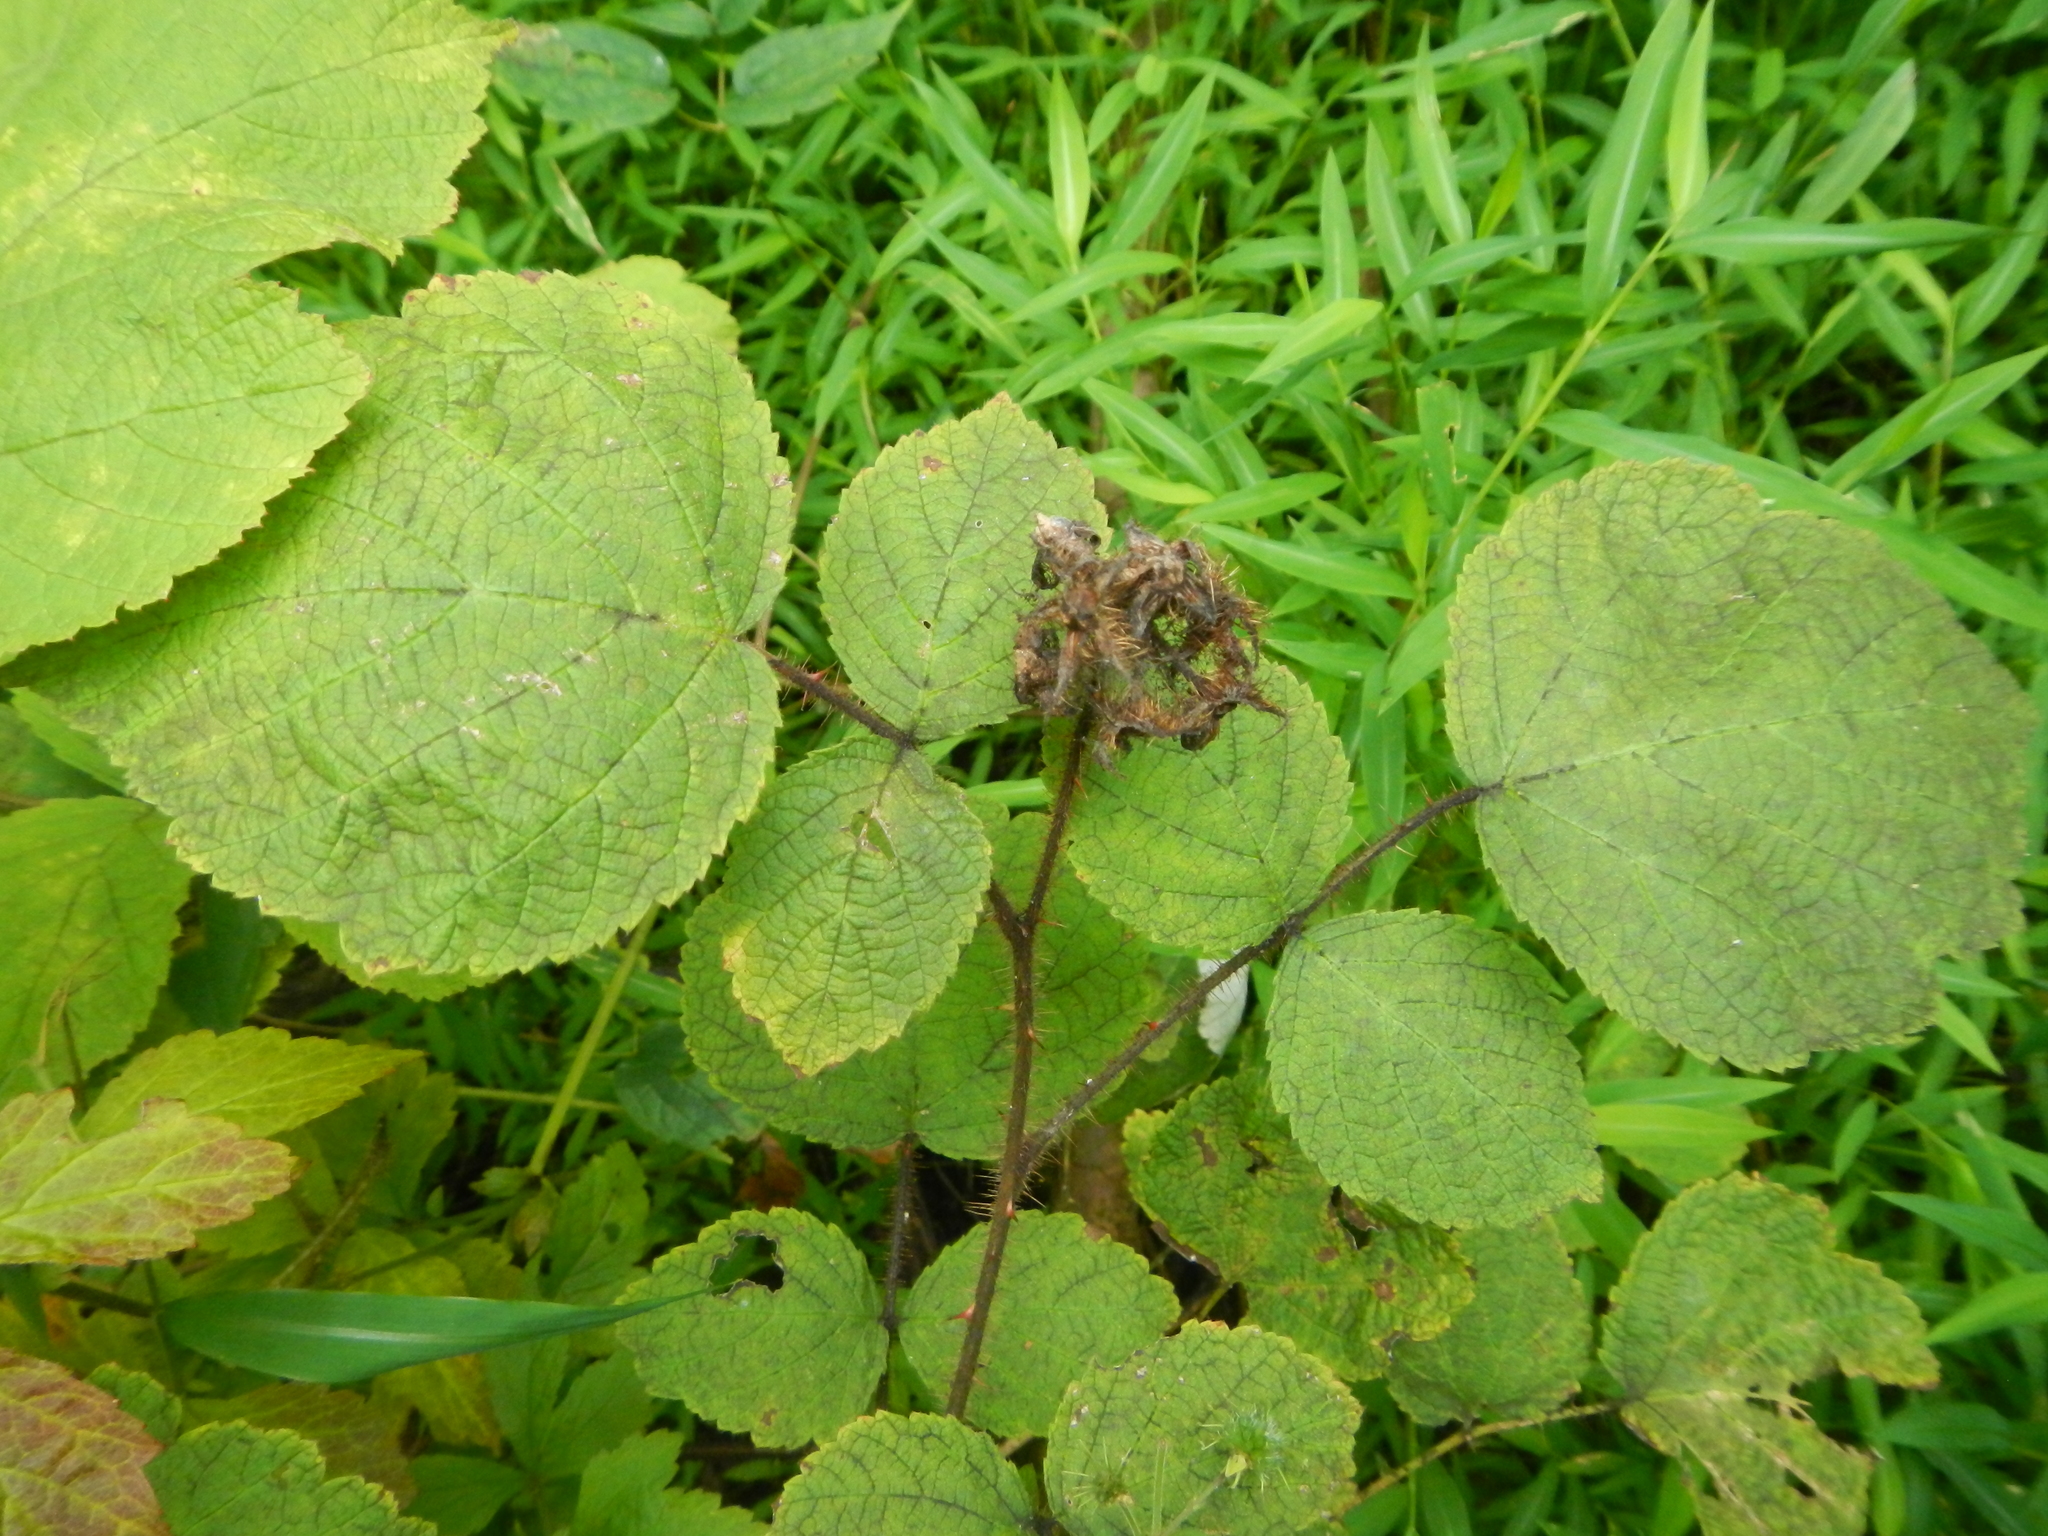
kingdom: Plantae
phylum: Tracheophyta
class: Magnoliopsida
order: Rosales
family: Rosaceae
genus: Rubus
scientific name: Rubus phoenicolasius
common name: Japanese wineberry
